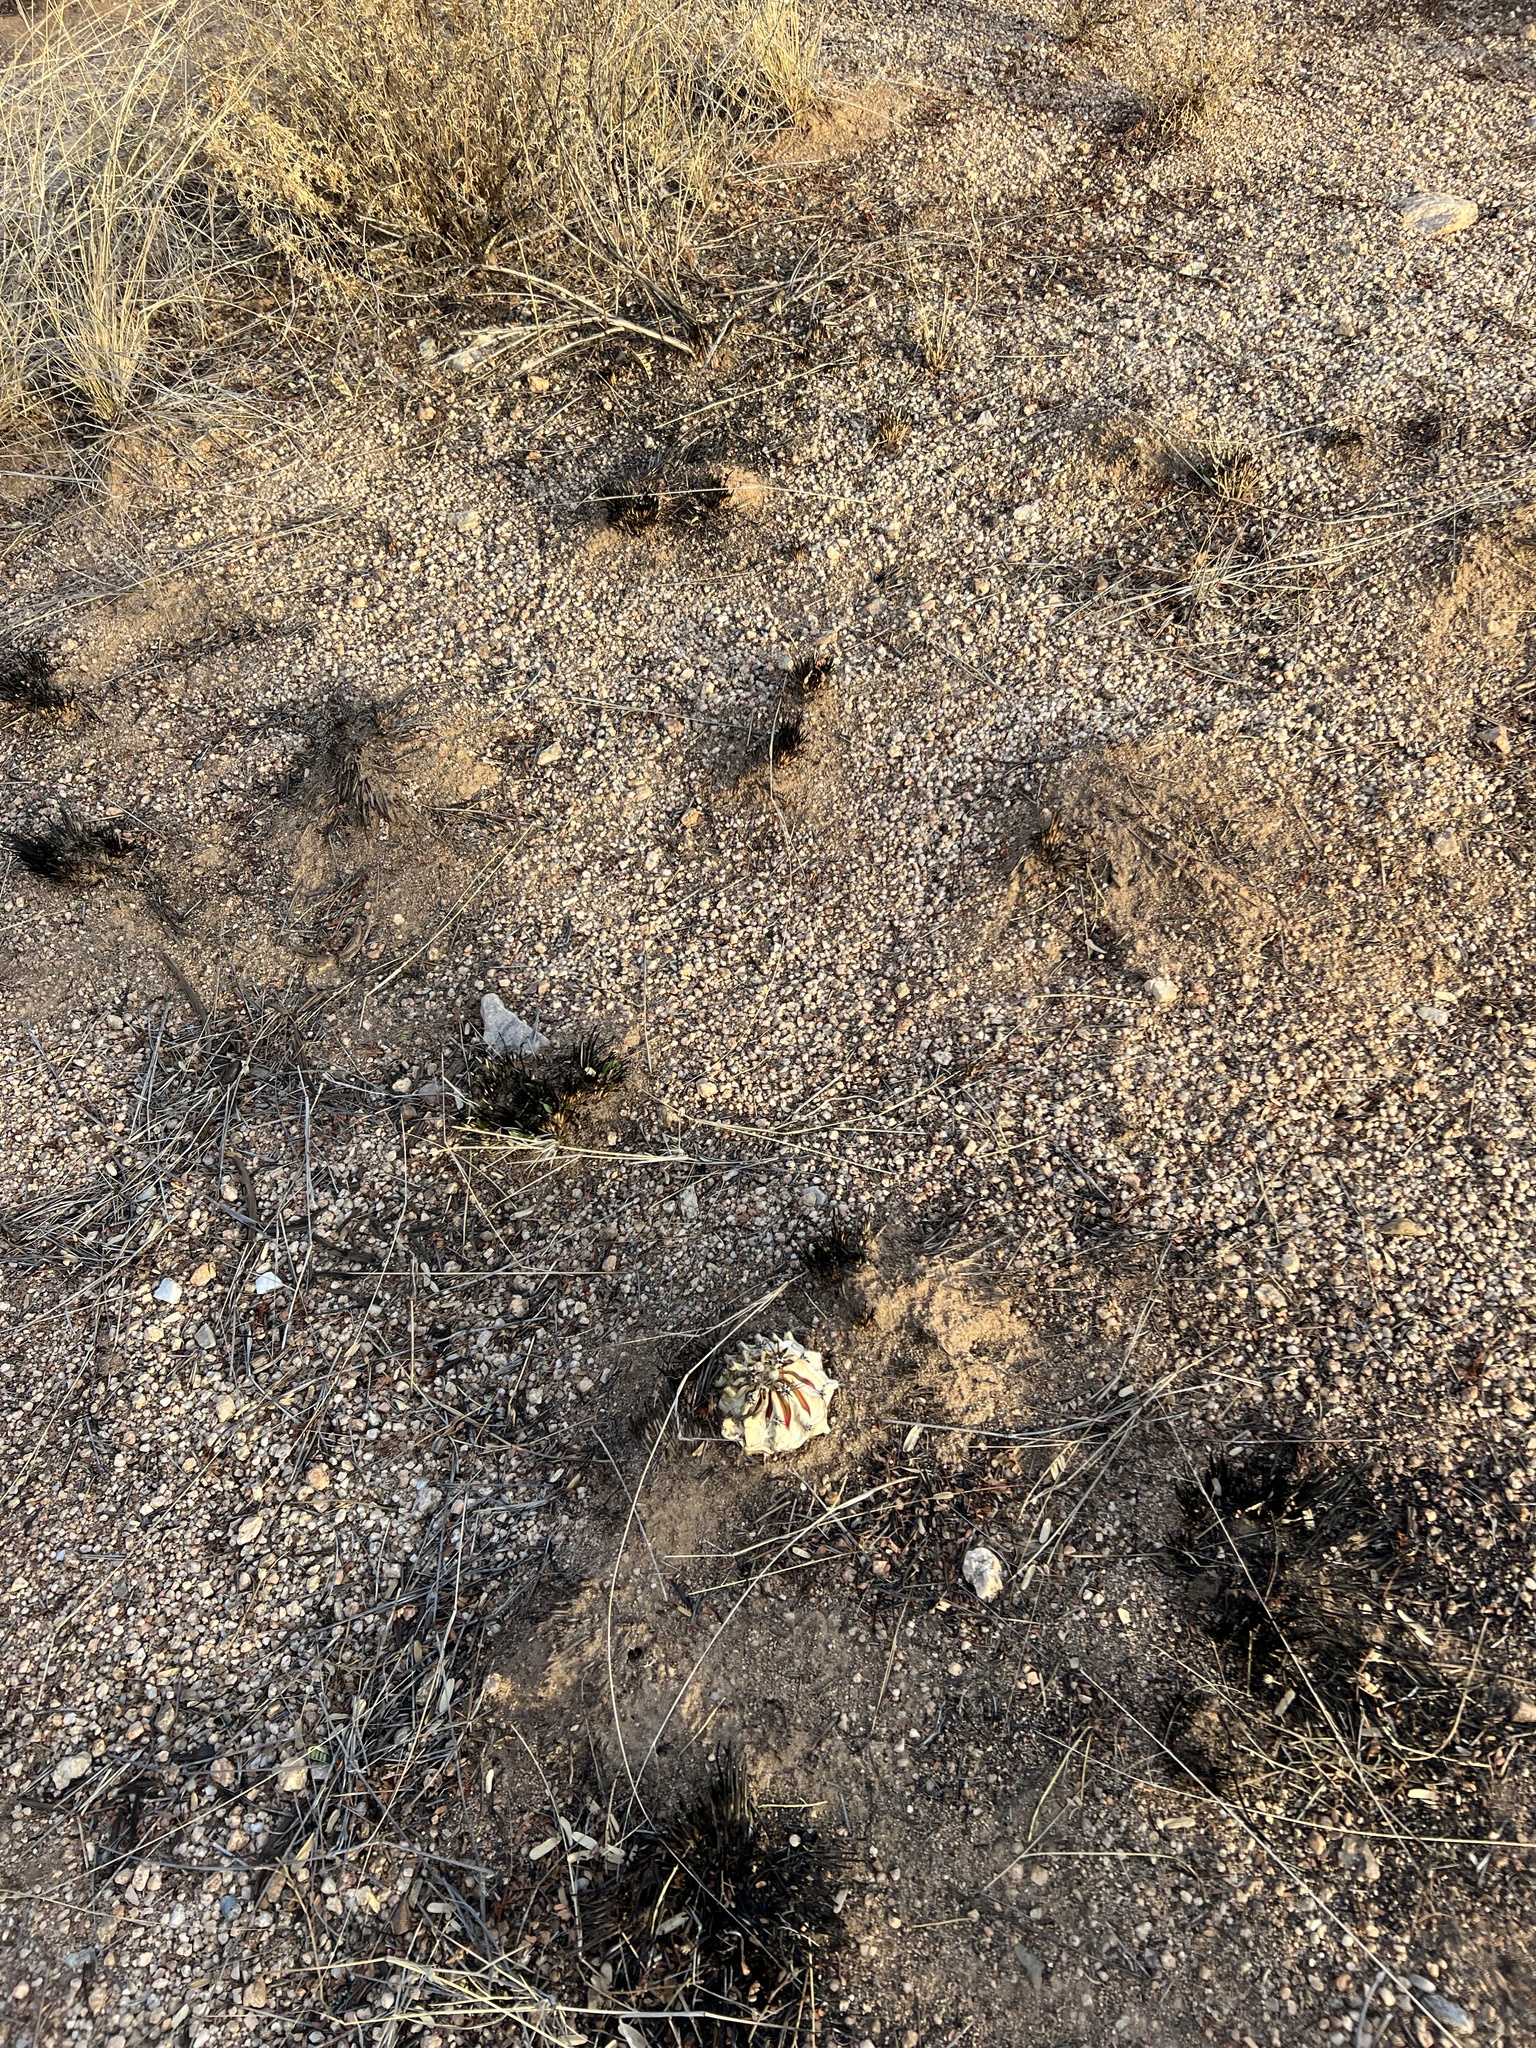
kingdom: Plantae
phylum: Tracheophyta
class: Magnoliopsida
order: Caryophyllales
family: Cactaceae
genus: Ferocactus
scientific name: Ferocactus wislizeni
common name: Candy barrel cactus
